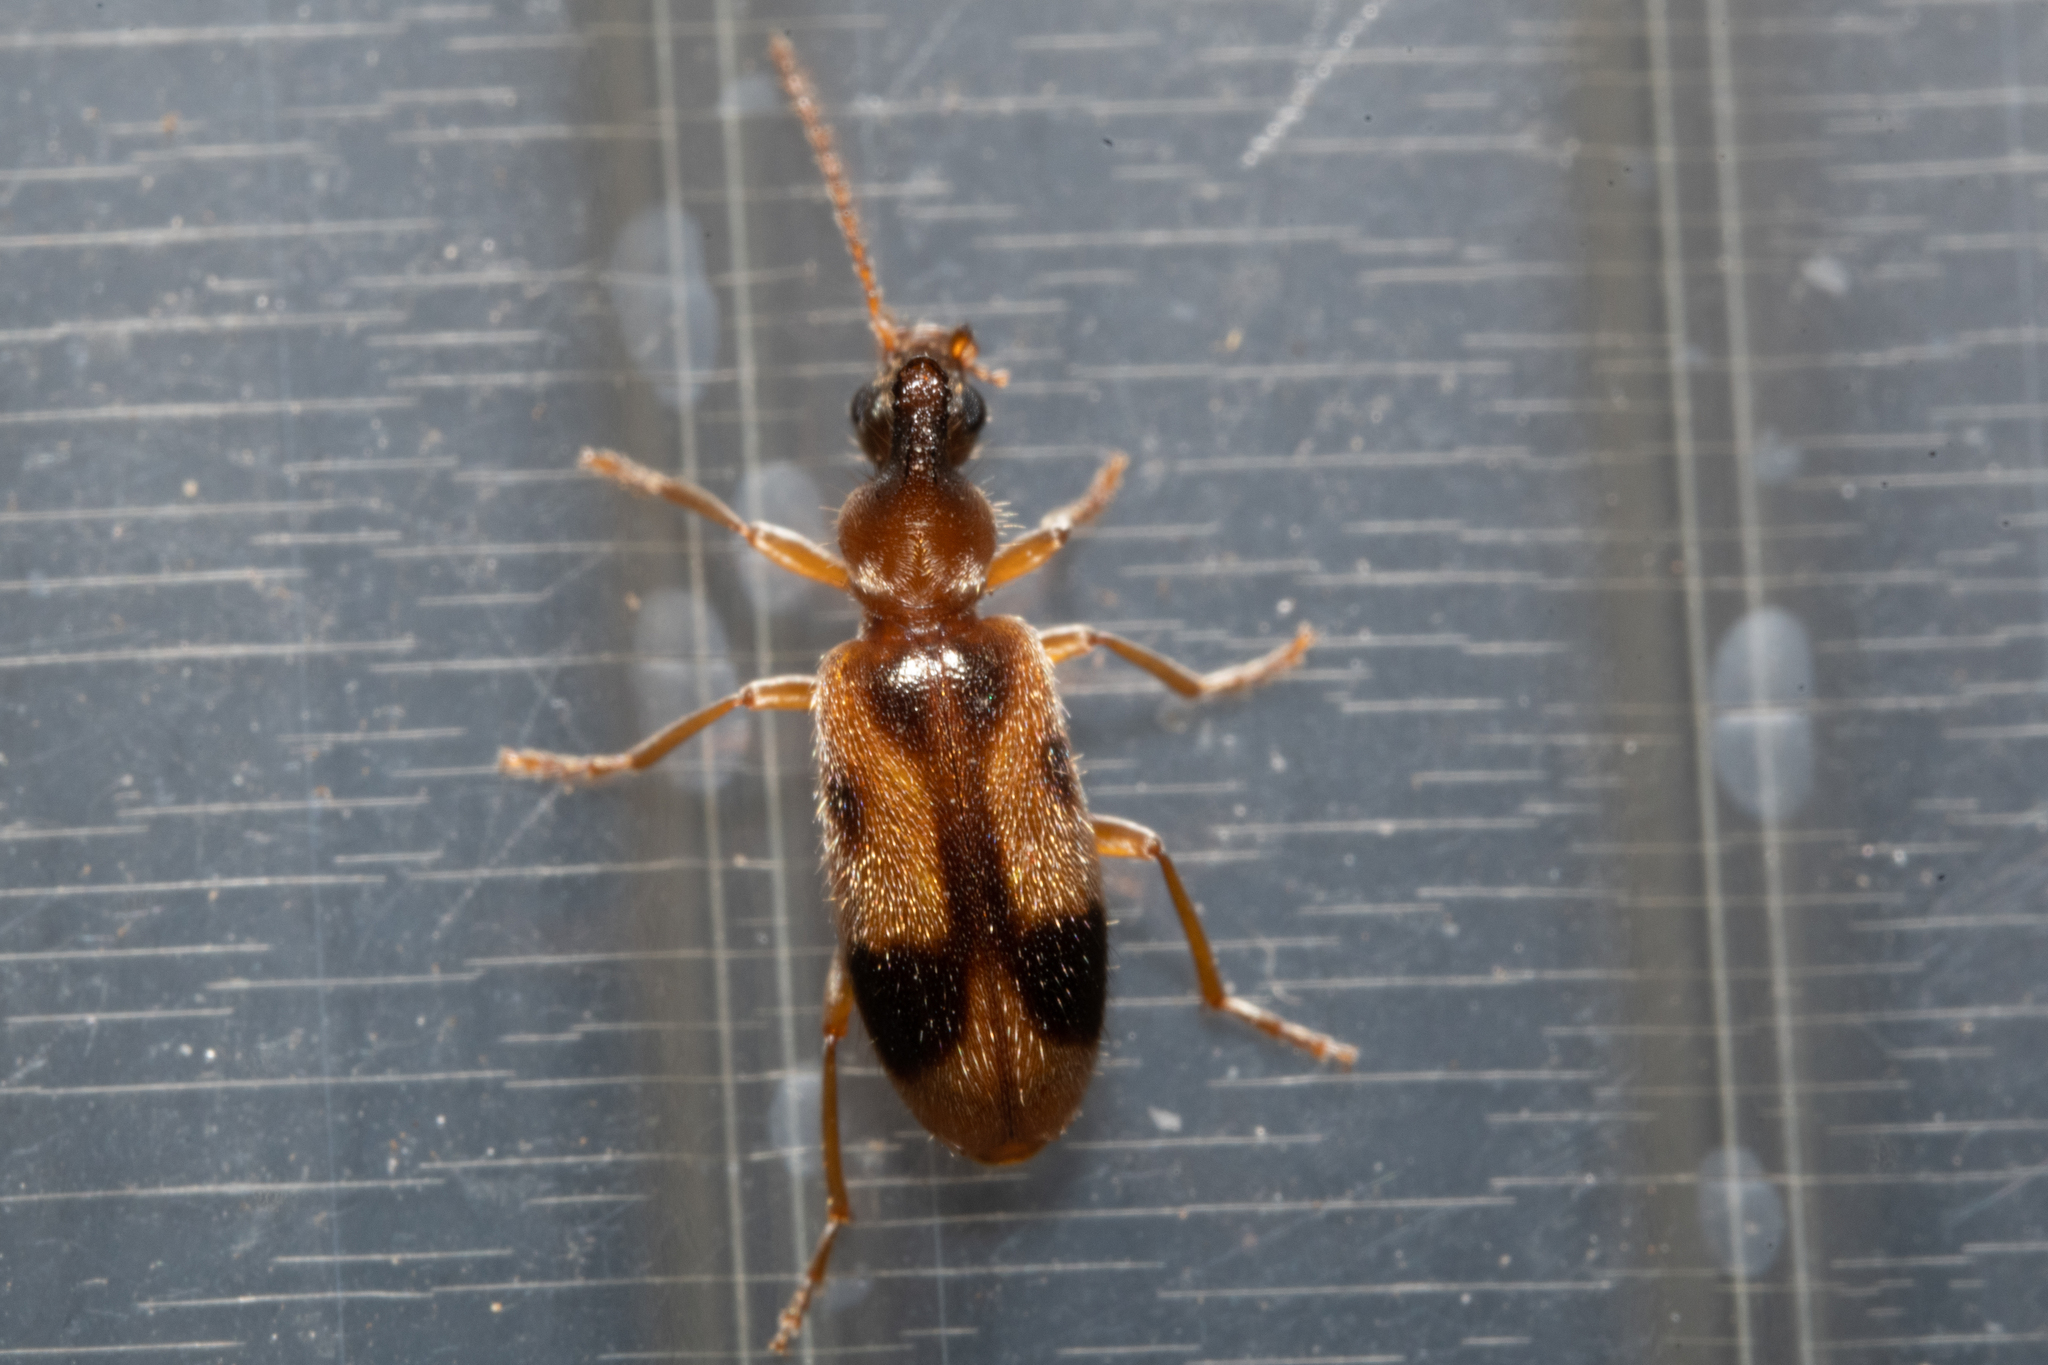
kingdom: Animalia
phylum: Arthropoda
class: Insecta
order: Coleoptera
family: Anthicidae
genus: Notoxus
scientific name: Notoxus monoceros
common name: Monoceros beetle
